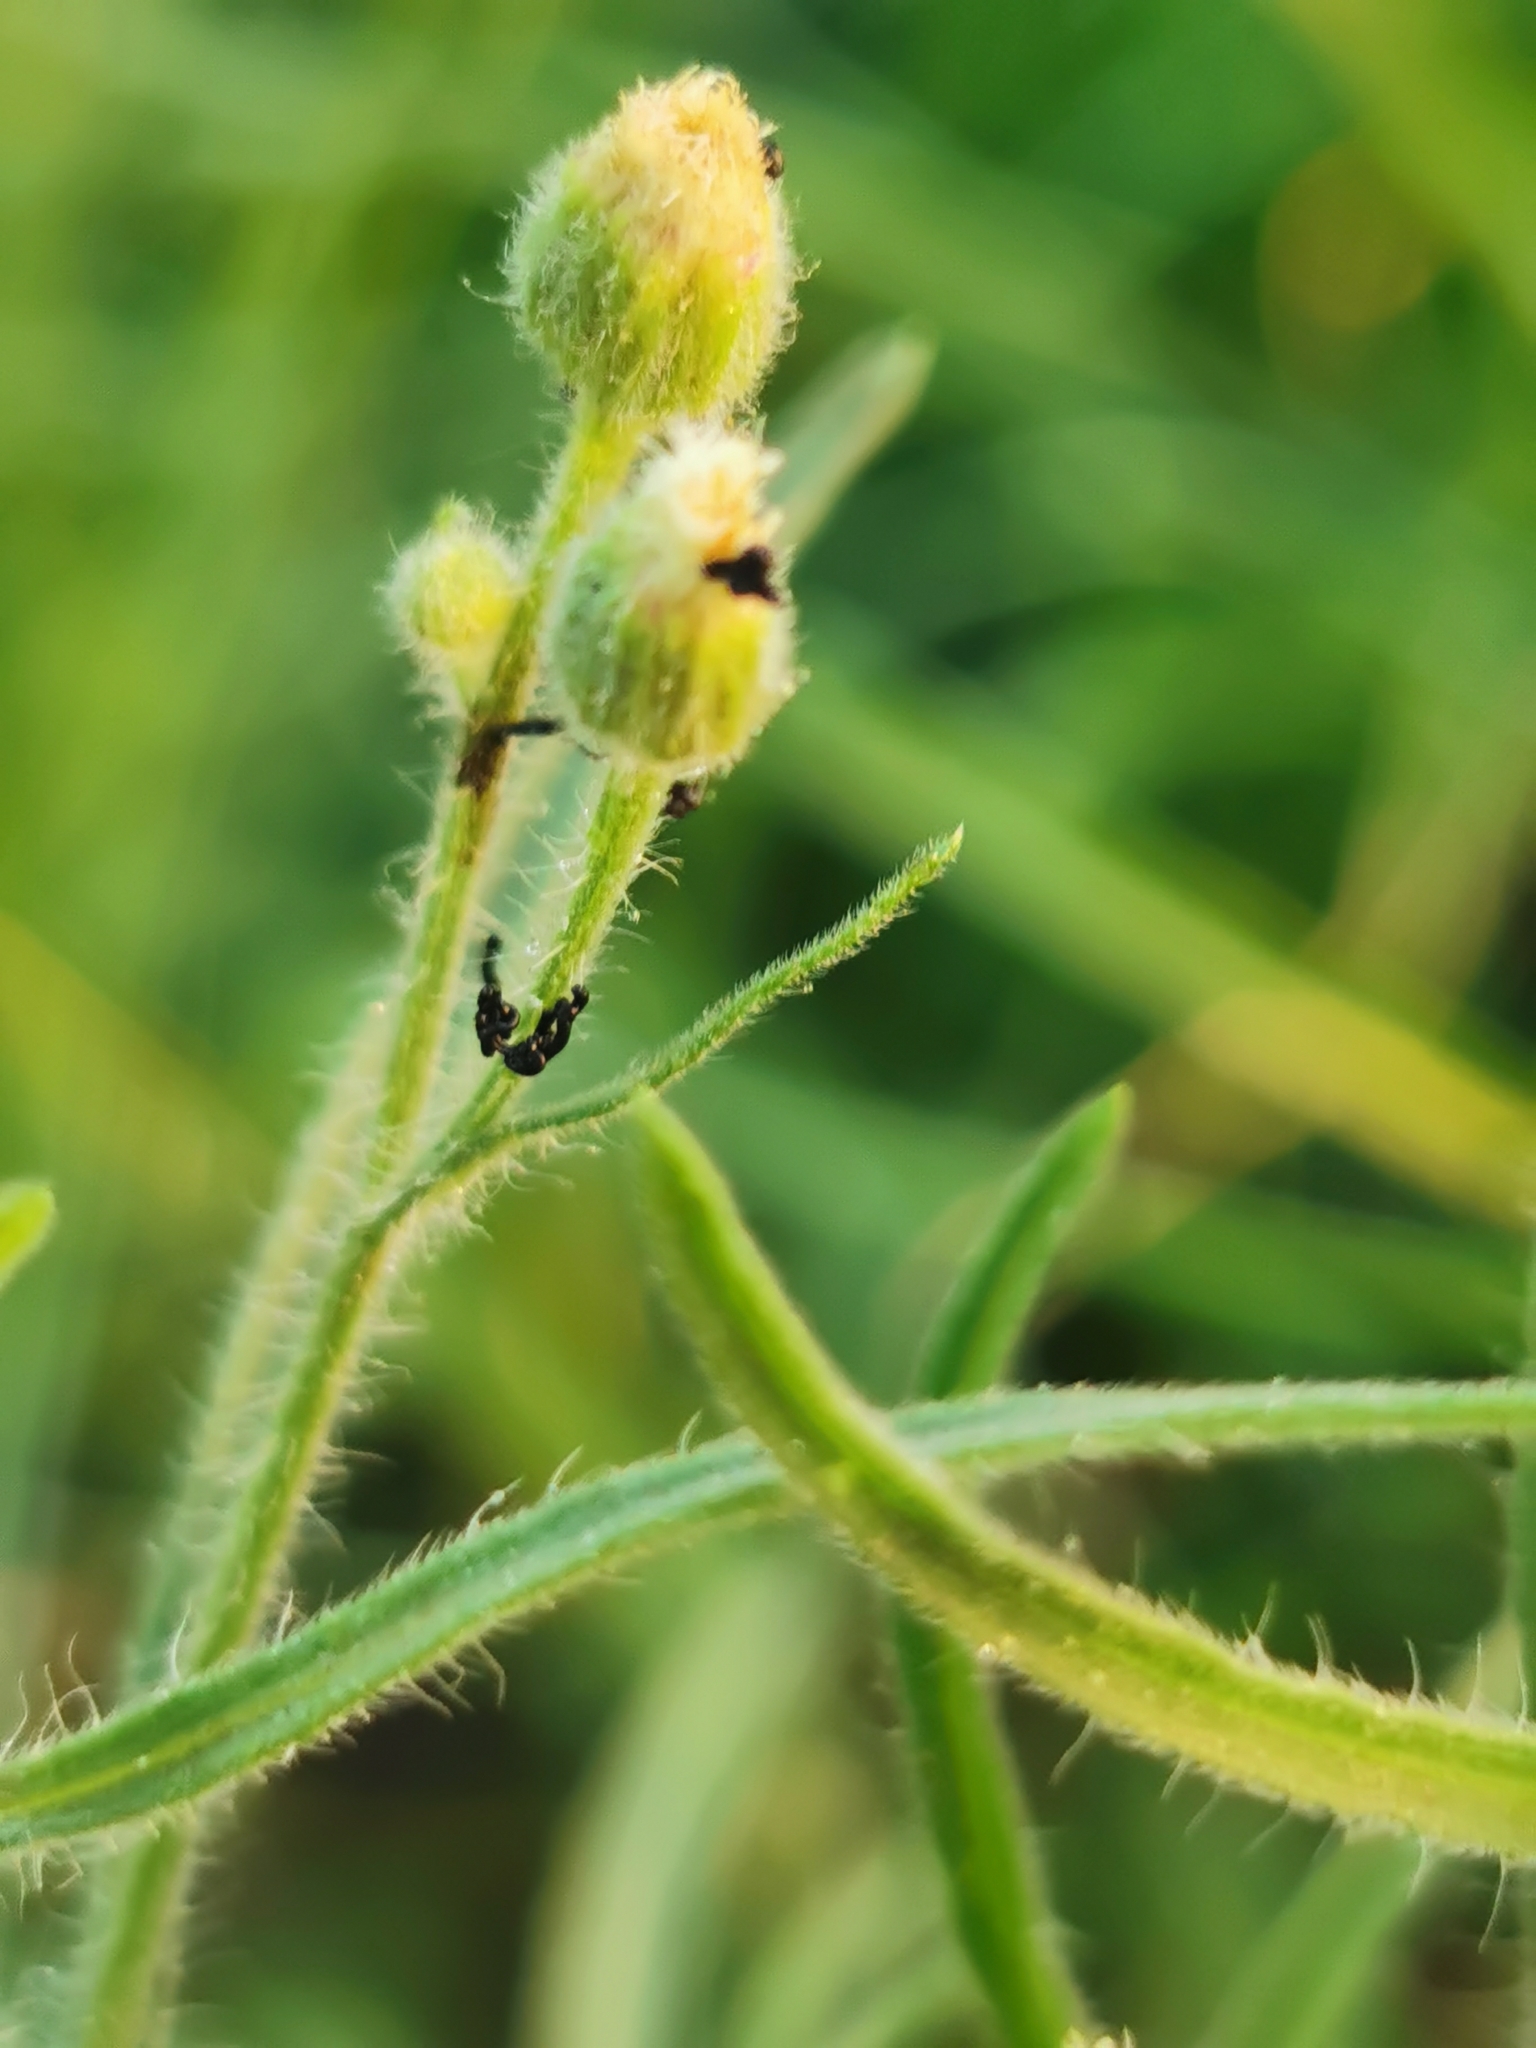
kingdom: Plantae
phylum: Tracheophyta
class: Magnoliopsida
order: Asterales
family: Asteraceae
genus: Erigeron
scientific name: Erigeron bonariensis
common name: Argentine fleabane
